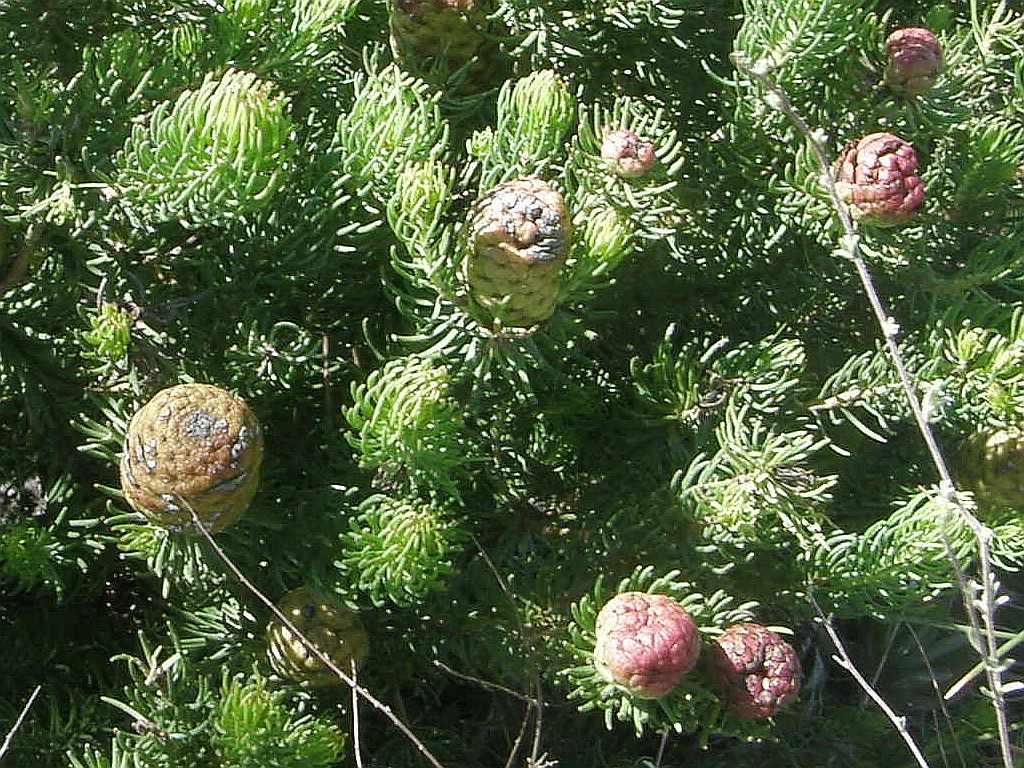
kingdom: Plantae
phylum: Tracheophyta
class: Magnoliopsida
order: Proteales
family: Proteaceae
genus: Leucadendron
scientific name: Leucadendron teretifolium
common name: Needle-leaf conebush
